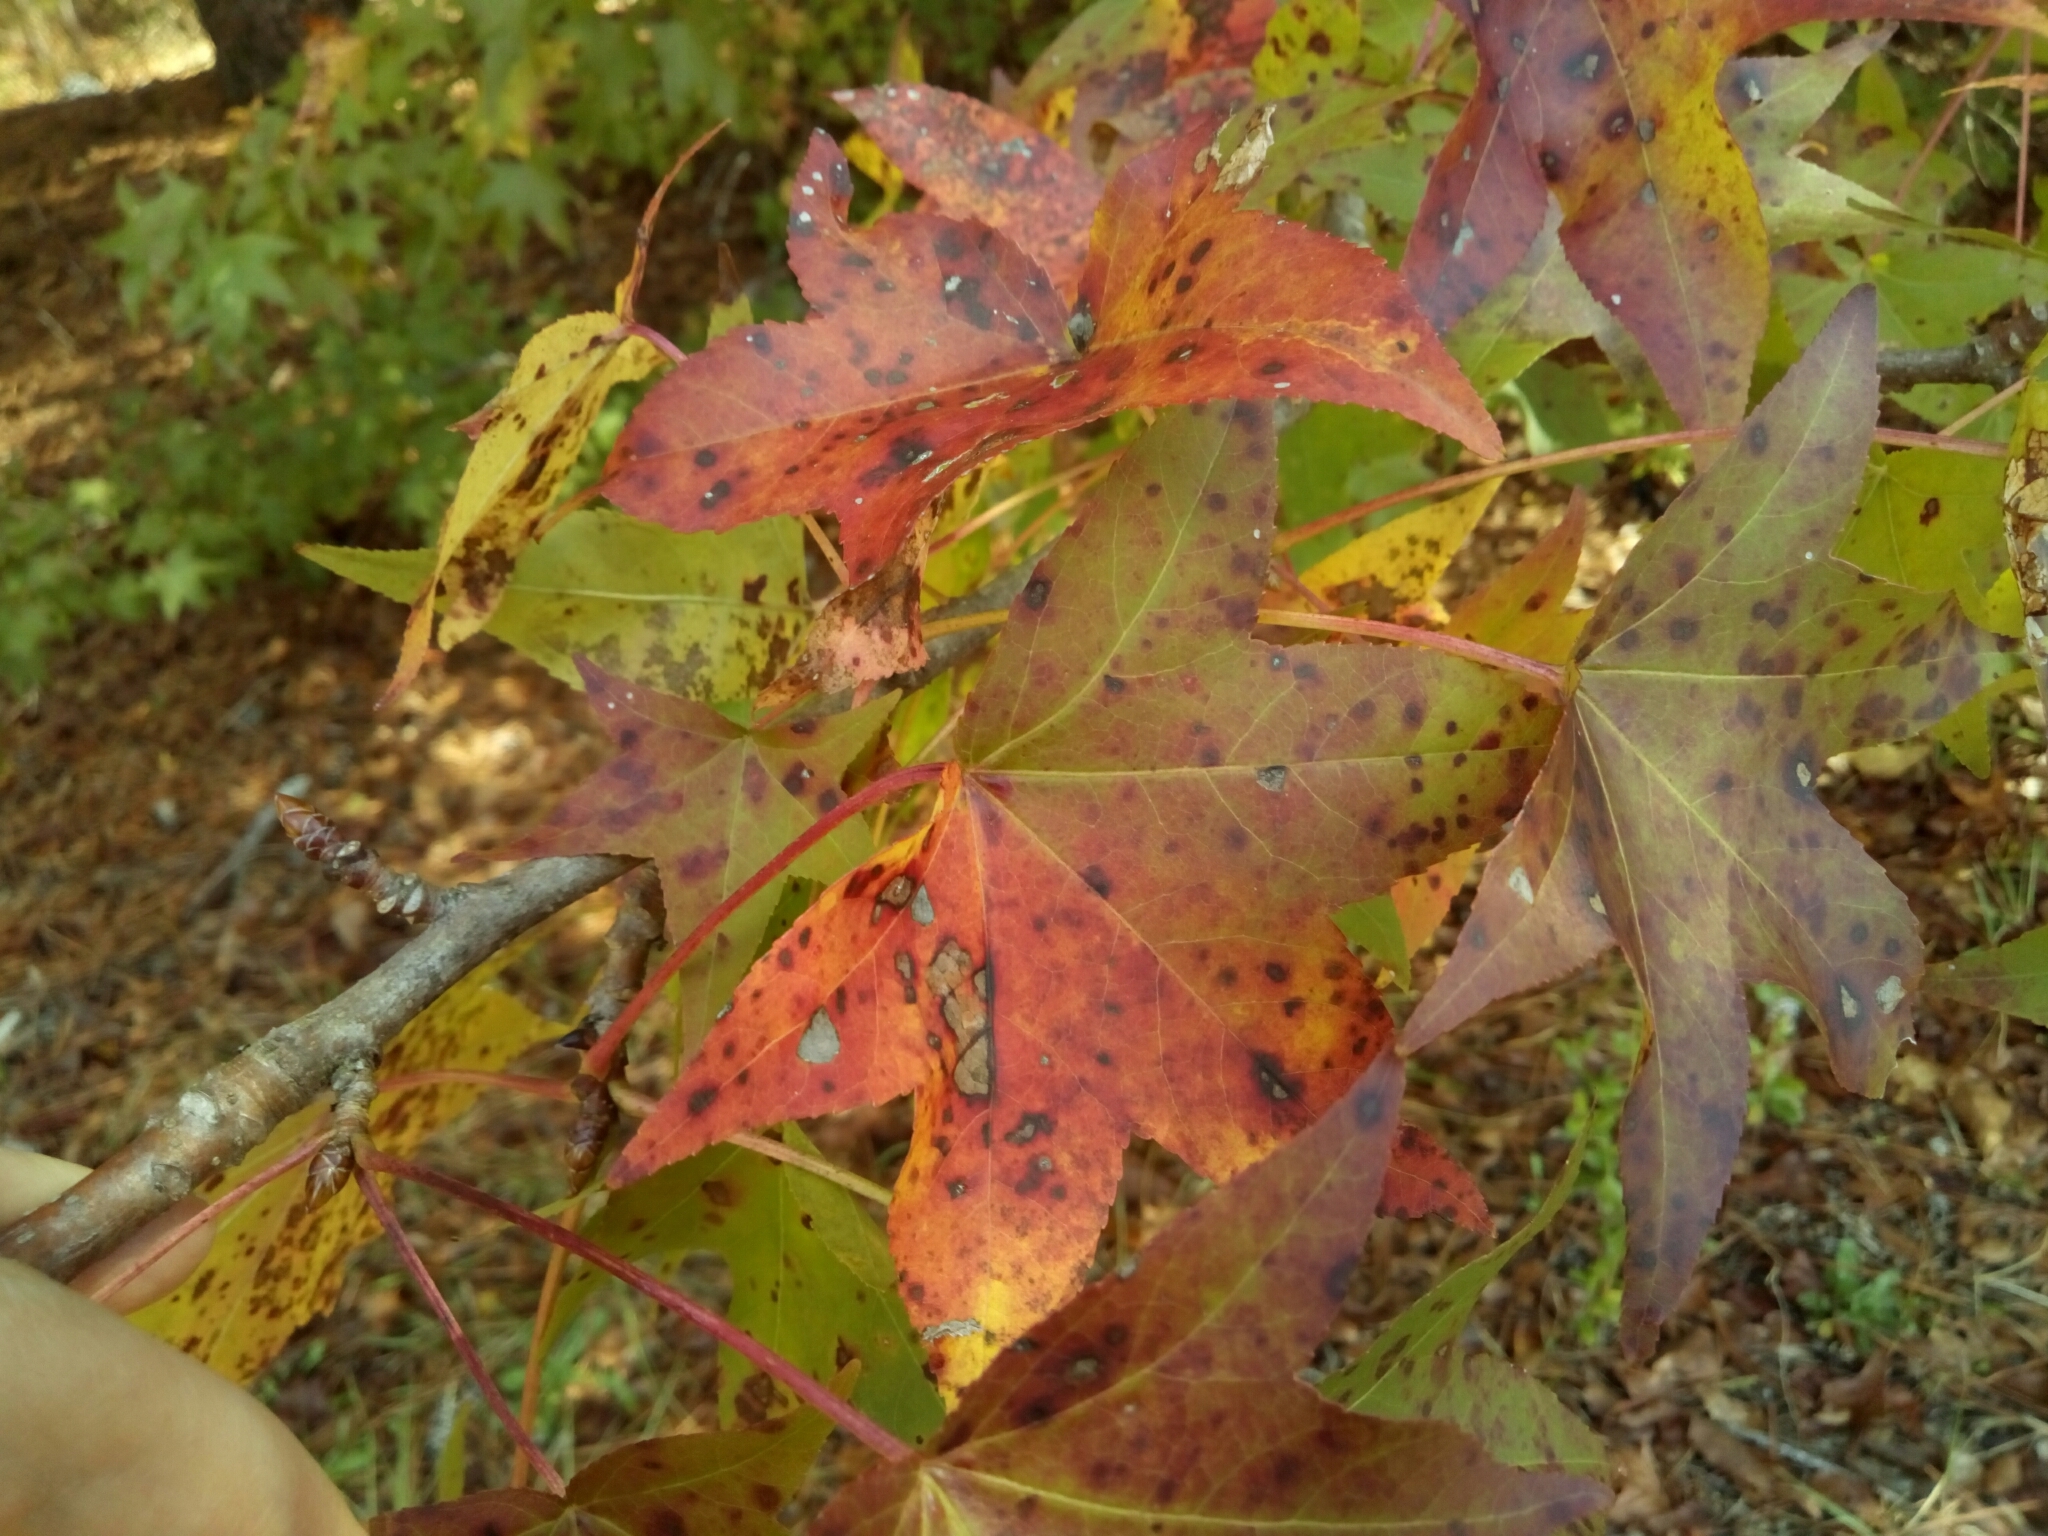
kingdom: Plantae
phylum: Tracheophyta
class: Magnoliopsida
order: Saxifragales
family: Altingiaceae
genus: Liquidambar
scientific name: Liquidambar styraciflua
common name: Sweet gum
